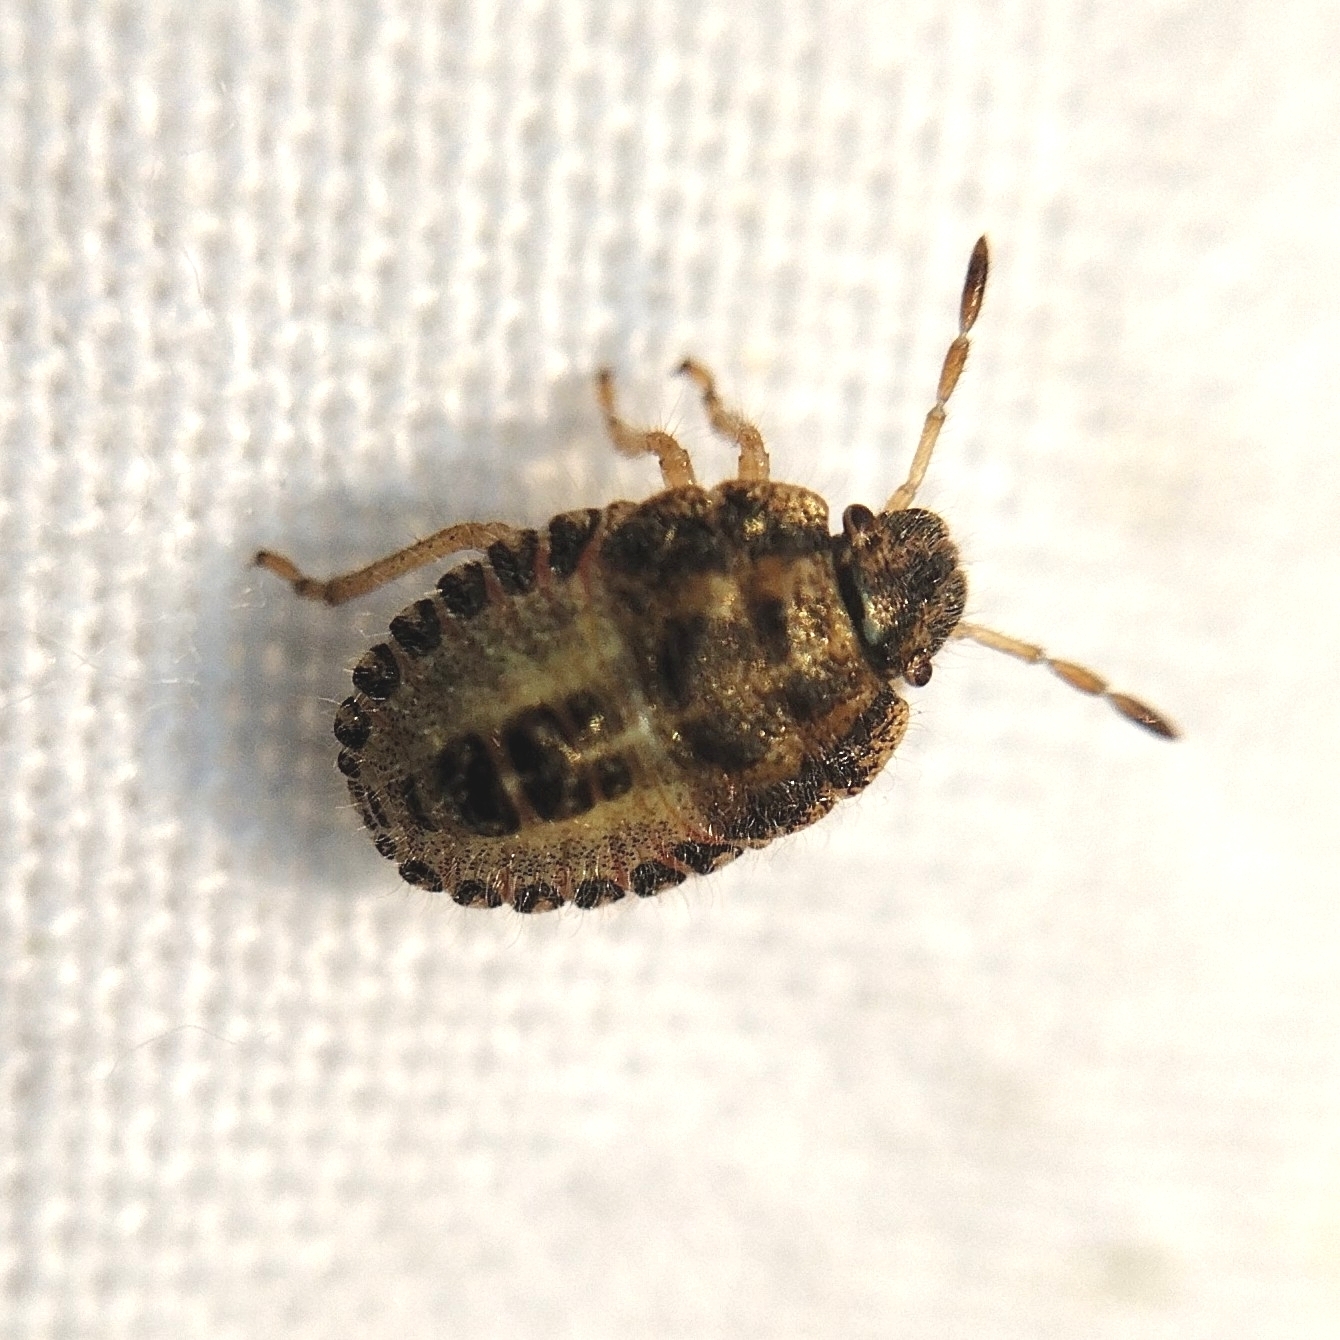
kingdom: Animalia
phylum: Arthropoda
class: Insecta
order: Hemiptera
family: Pentatomidae
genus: Dolycoris
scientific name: Dolycoris baccarum
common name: Sloe bug
